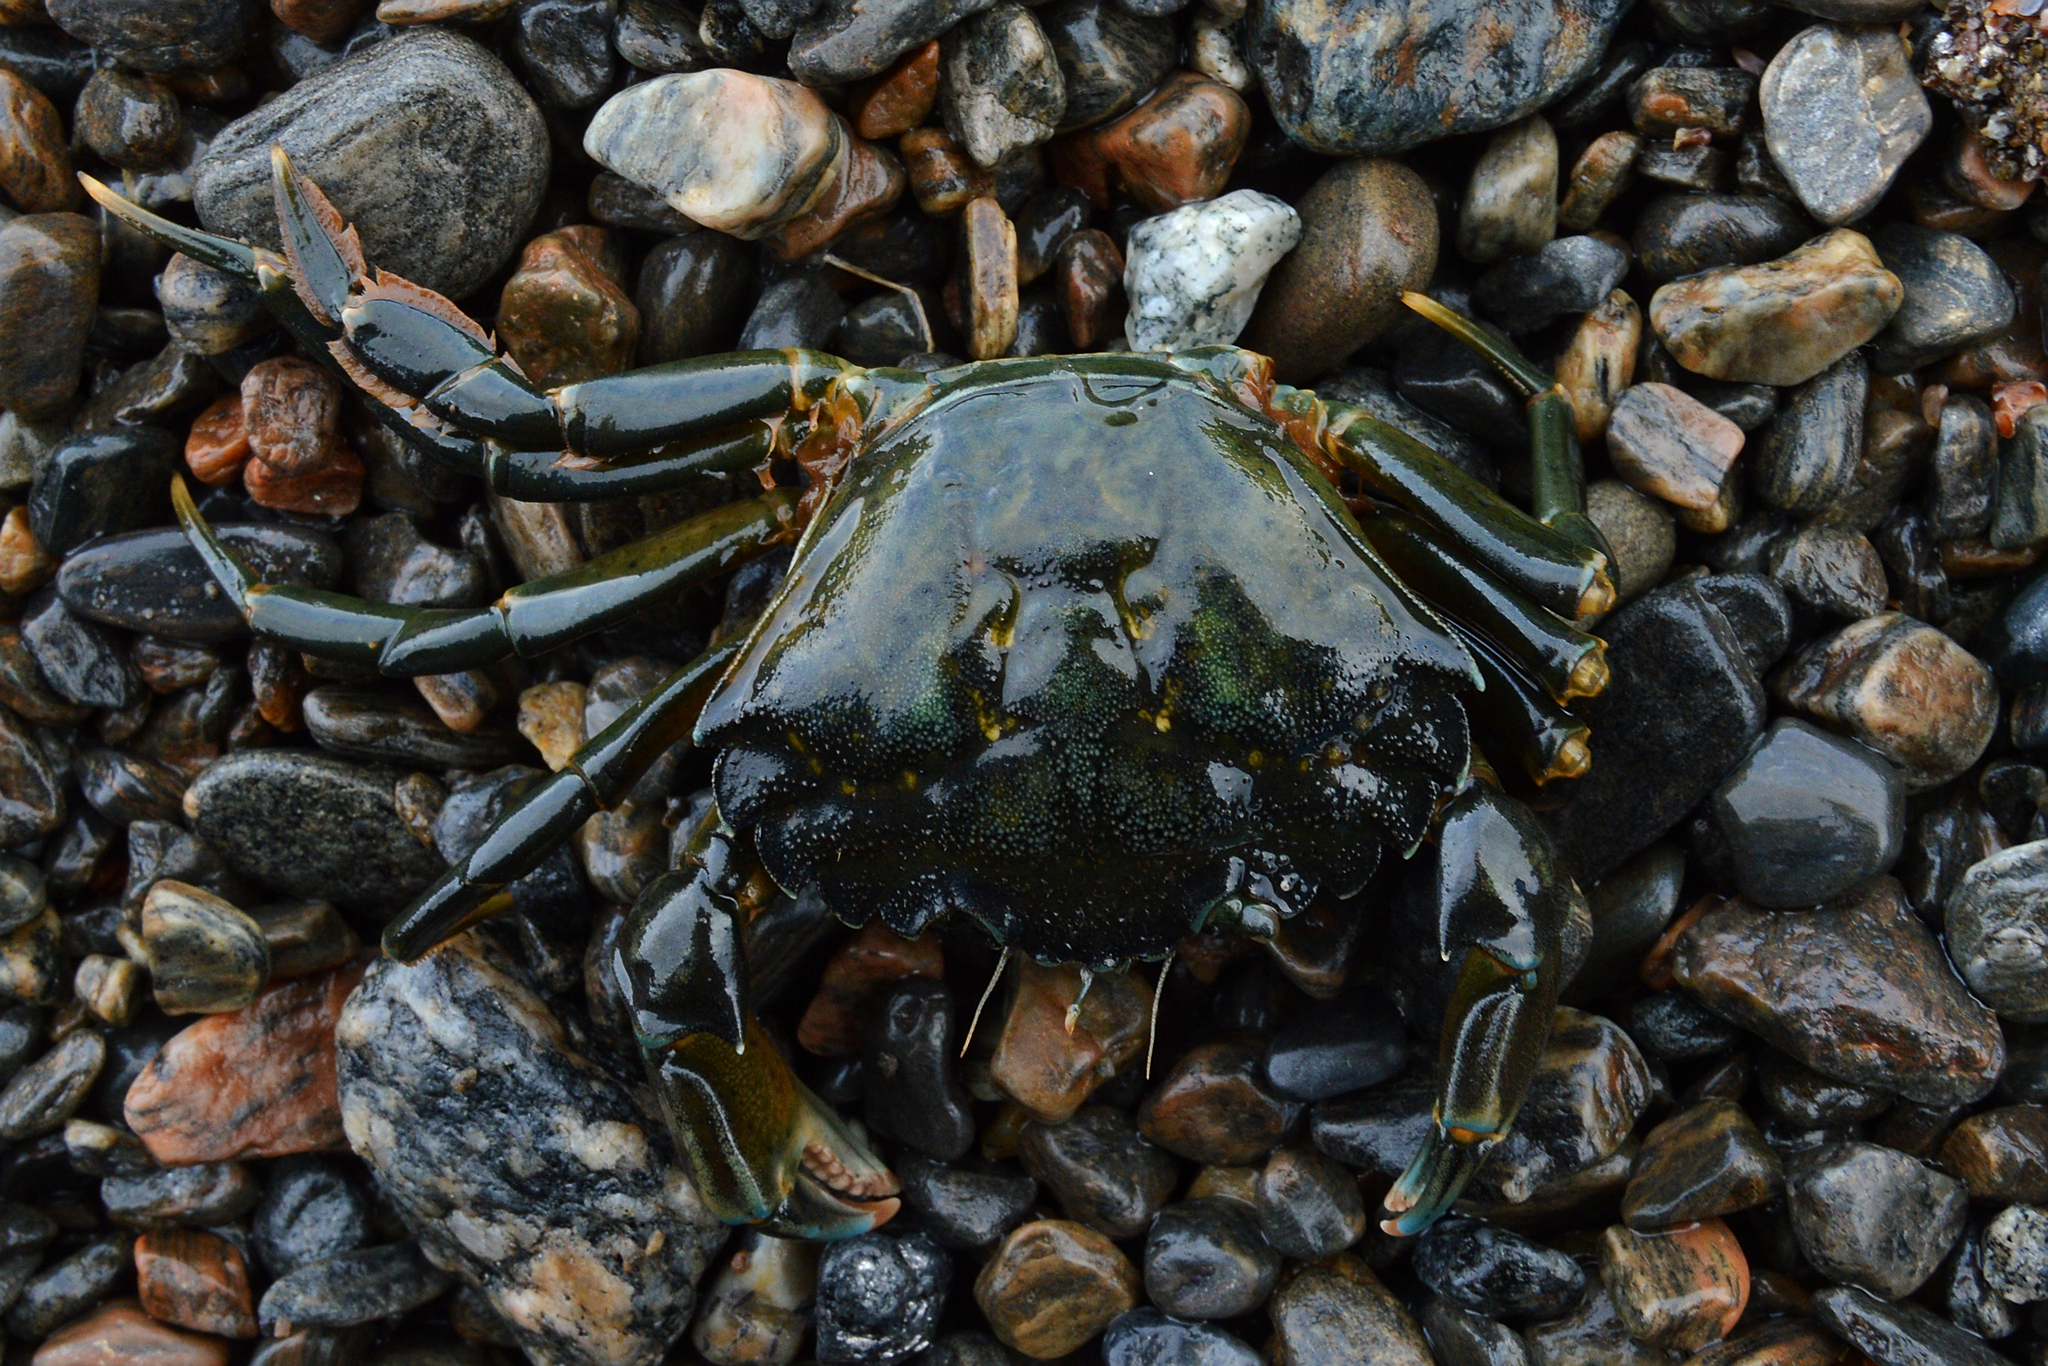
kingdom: Animalia
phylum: Arthropoda
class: Malacostraca
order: Decapoda
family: Carcinidae
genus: Carcinus
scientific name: Carcinus maenas
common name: European green crab
